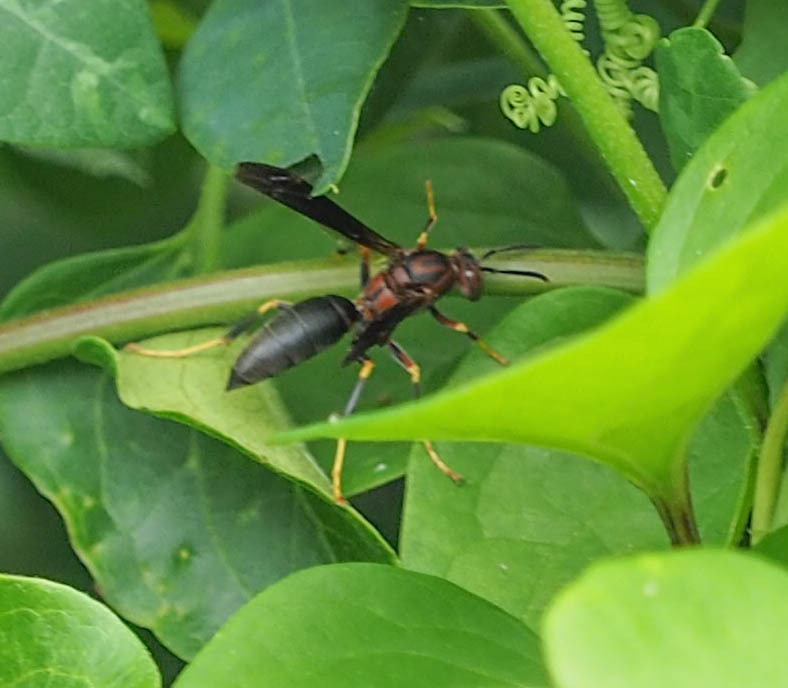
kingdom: Animalia
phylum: Arthropoda
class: Insecta
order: Hymenoptera
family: Eumenidae
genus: Polistes
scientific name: Polistes metricus
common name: Metric paper wasp
